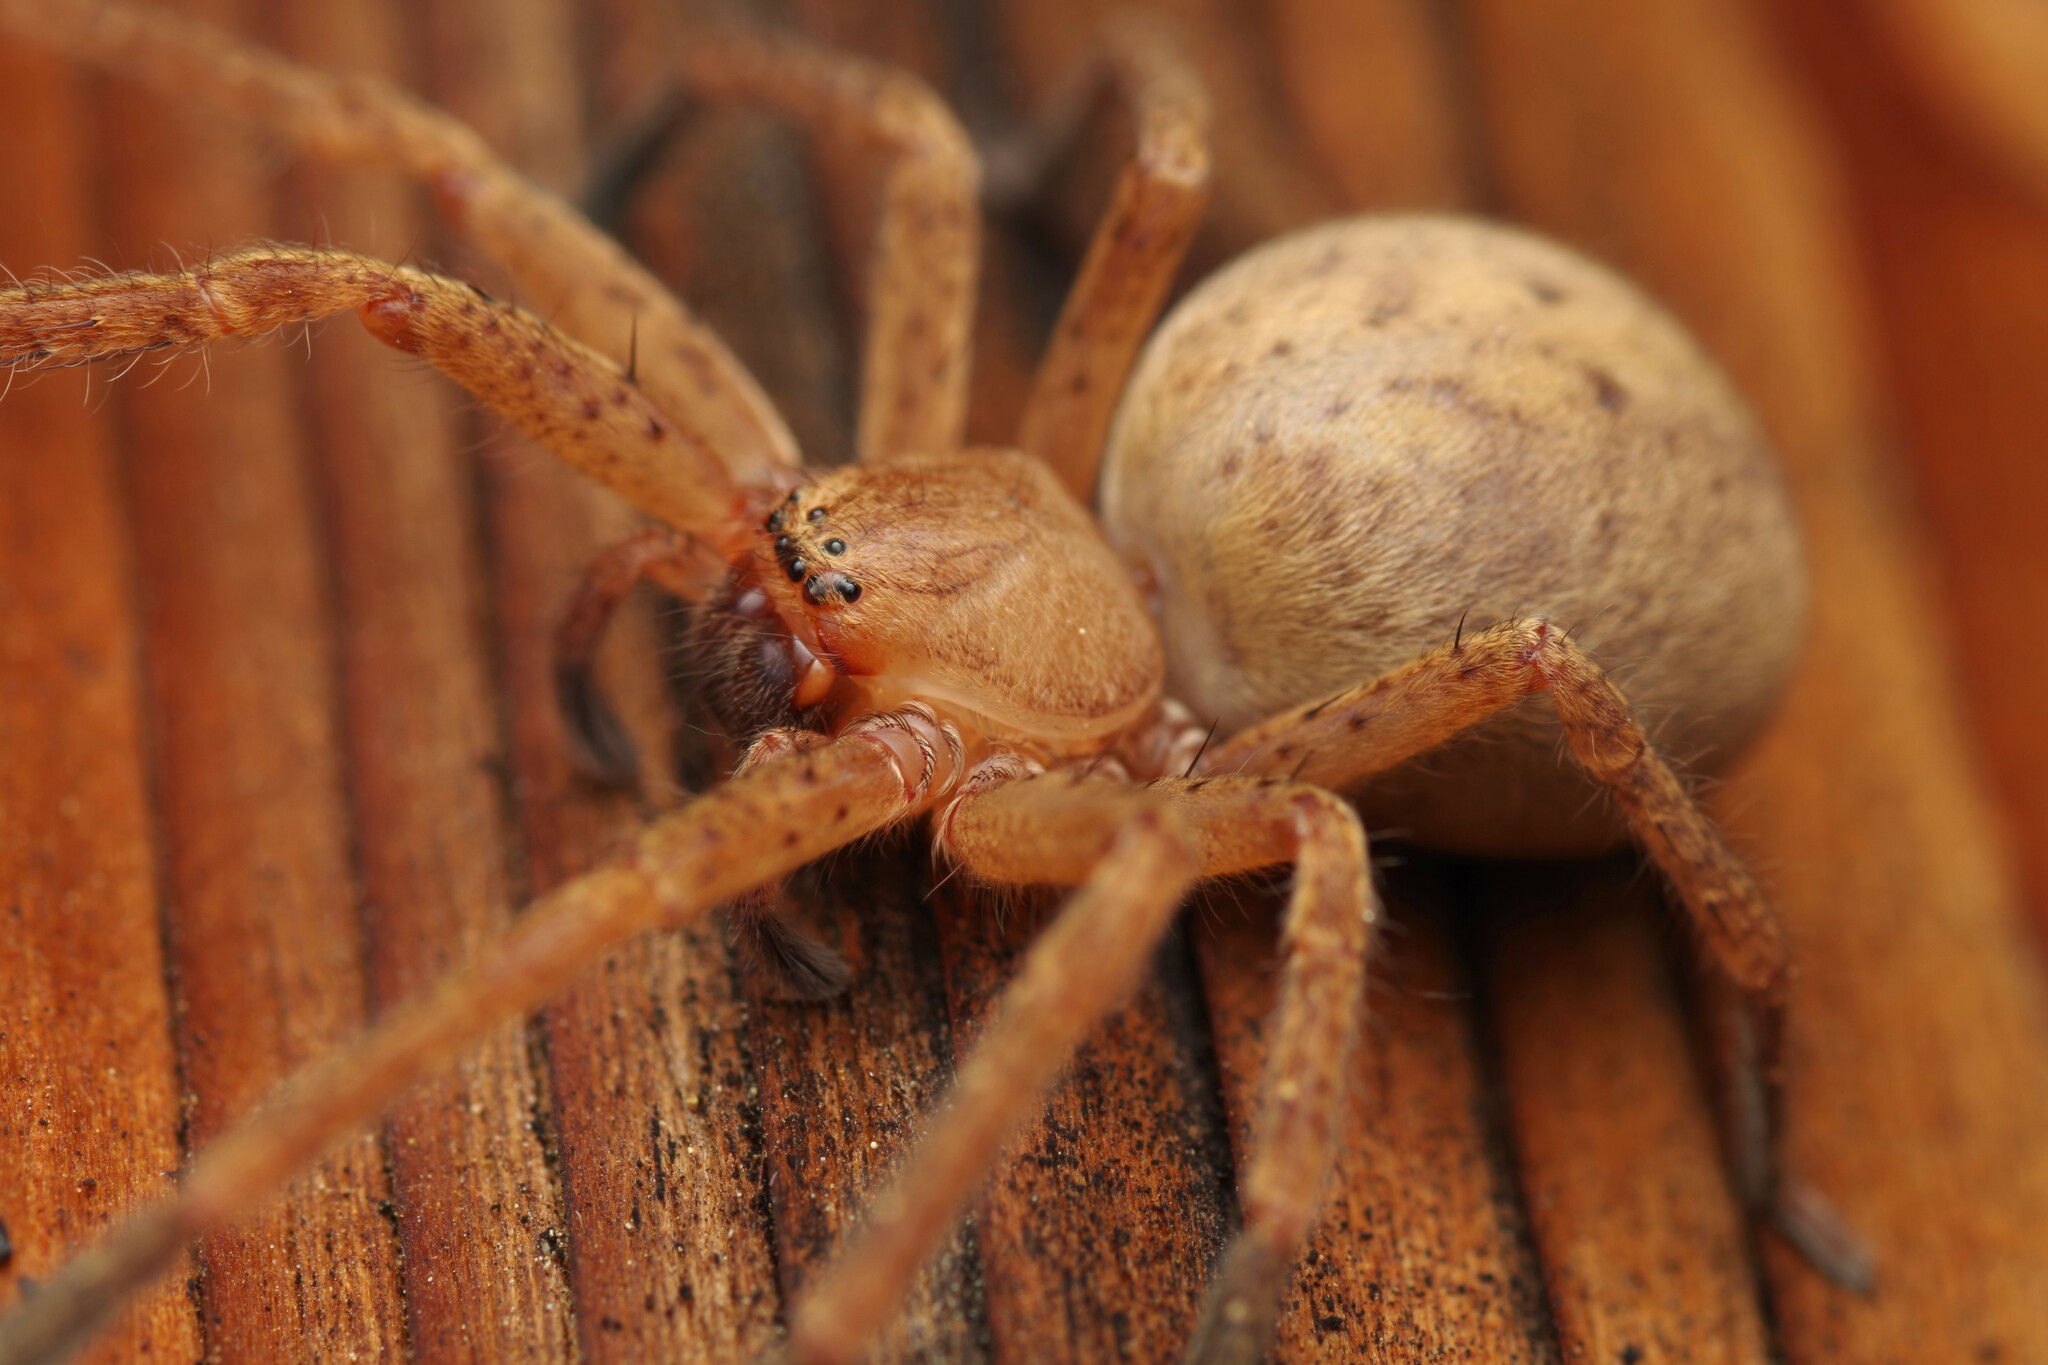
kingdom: Animalia
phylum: Arthropoda
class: Arachnida
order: Araneae
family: Sparassidae
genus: Olios
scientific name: Olios argelasius
